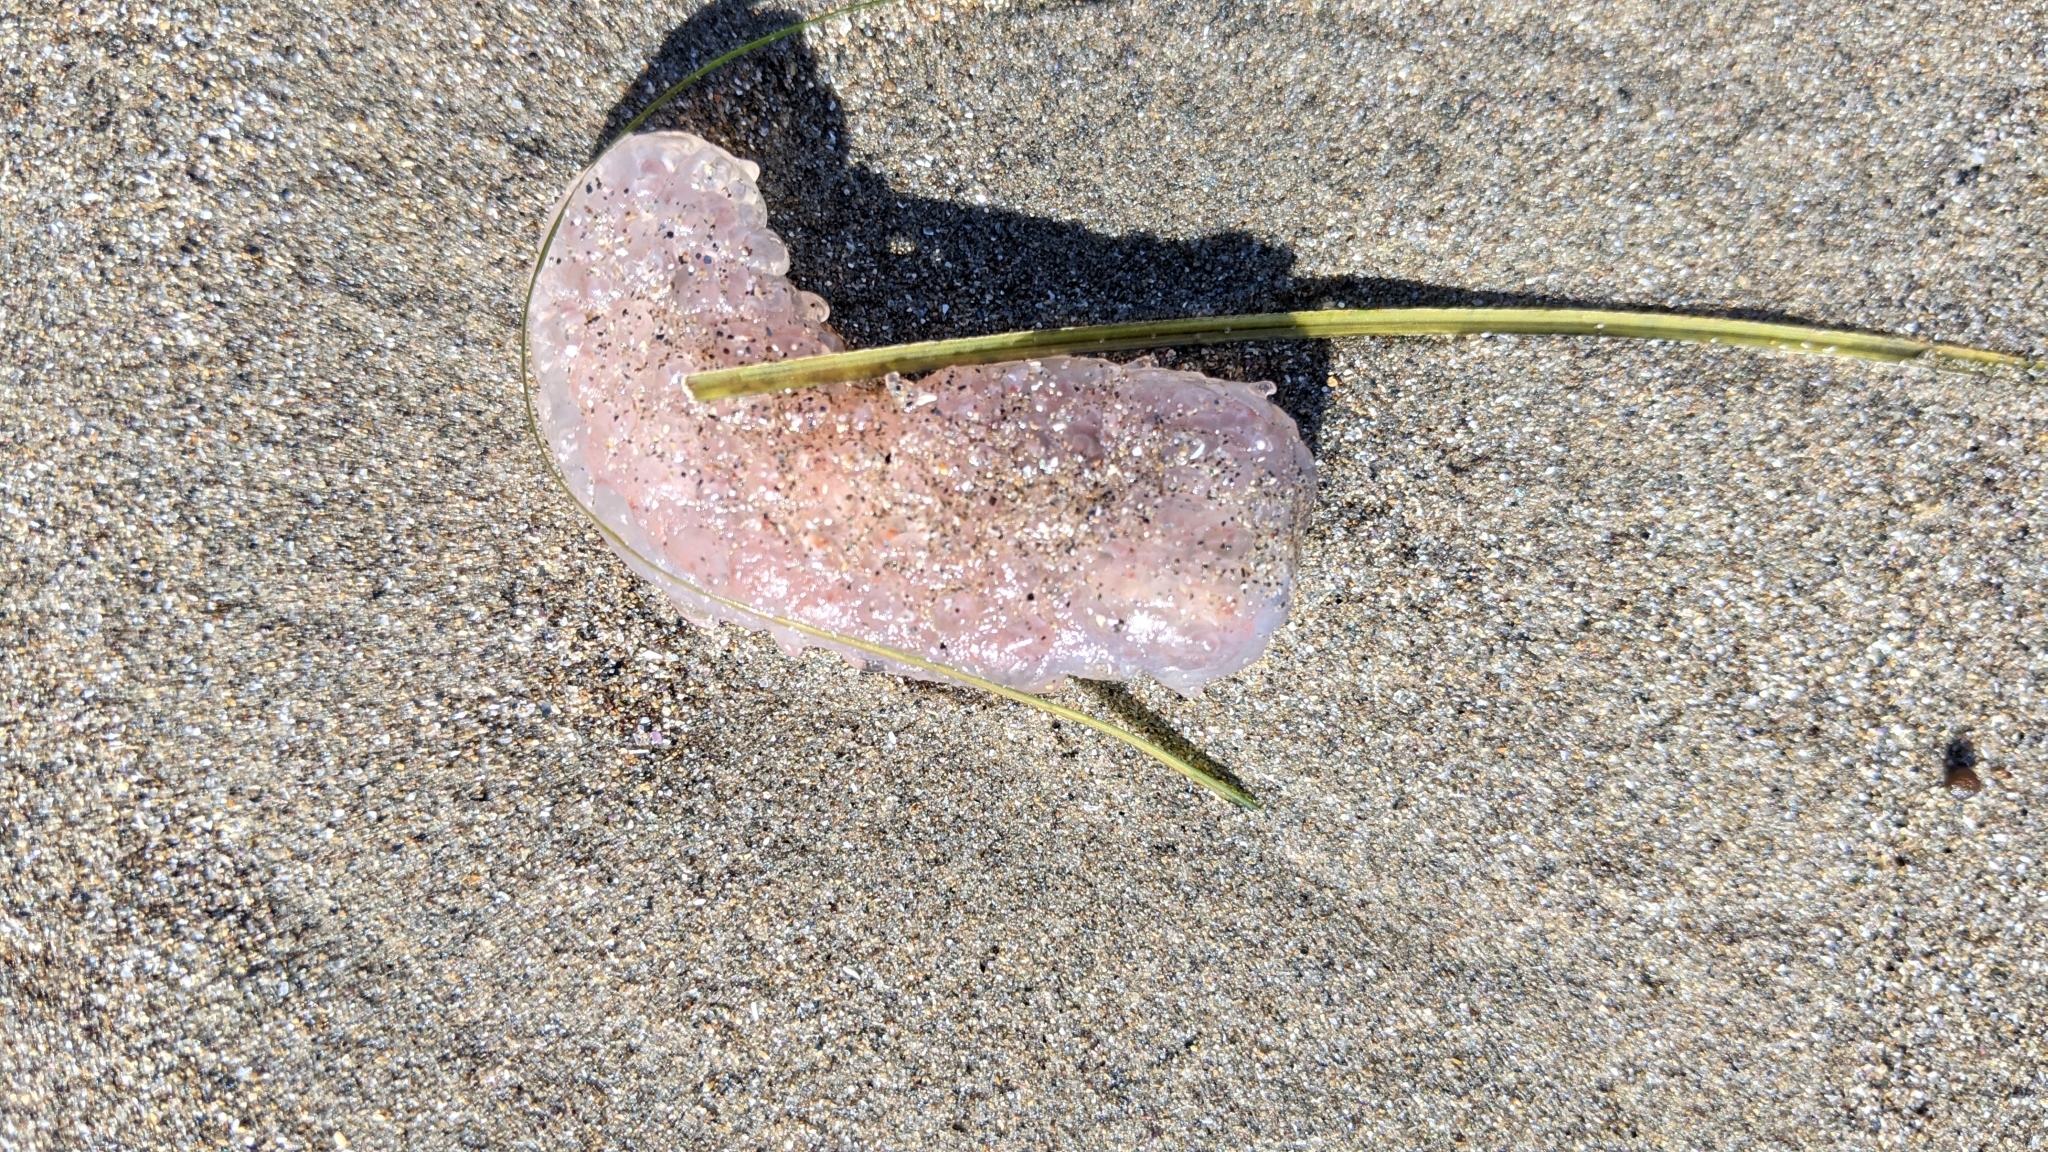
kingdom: Animalia
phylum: Chordata
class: Thaliacea
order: Pyrosomatida
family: Pyrosomatidae
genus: Pyrosoma
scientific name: Pyrosoma atlanticum
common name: Atlantic pyrosomes
